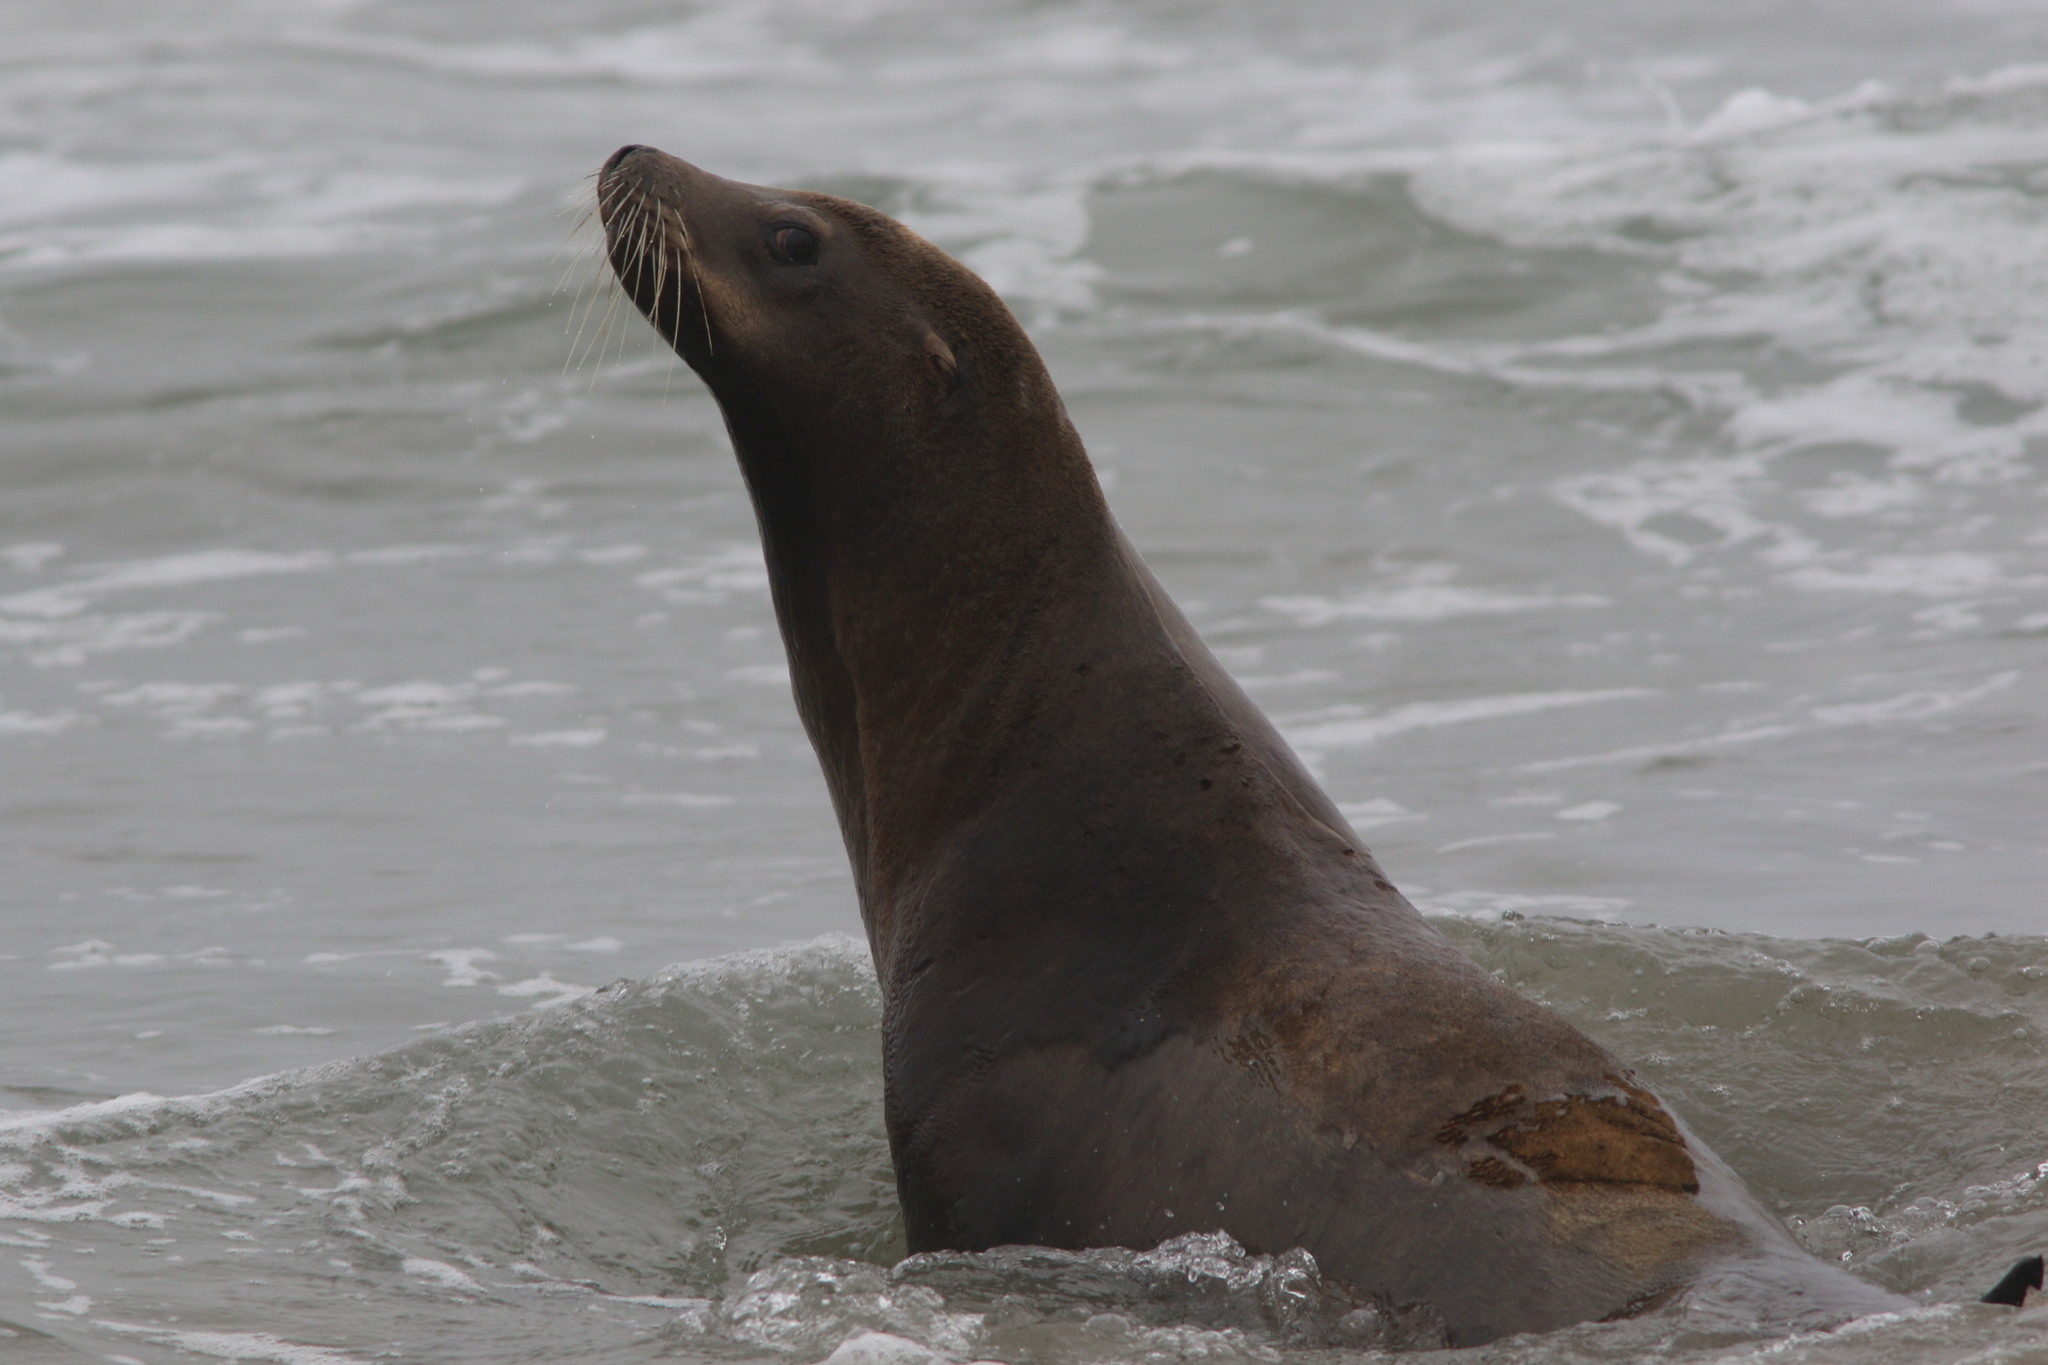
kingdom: Animalia
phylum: Chordata
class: Mammalia
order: Carnivora
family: Otariidae
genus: Zalophus
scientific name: Zalophus californianus
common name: California sea lion
